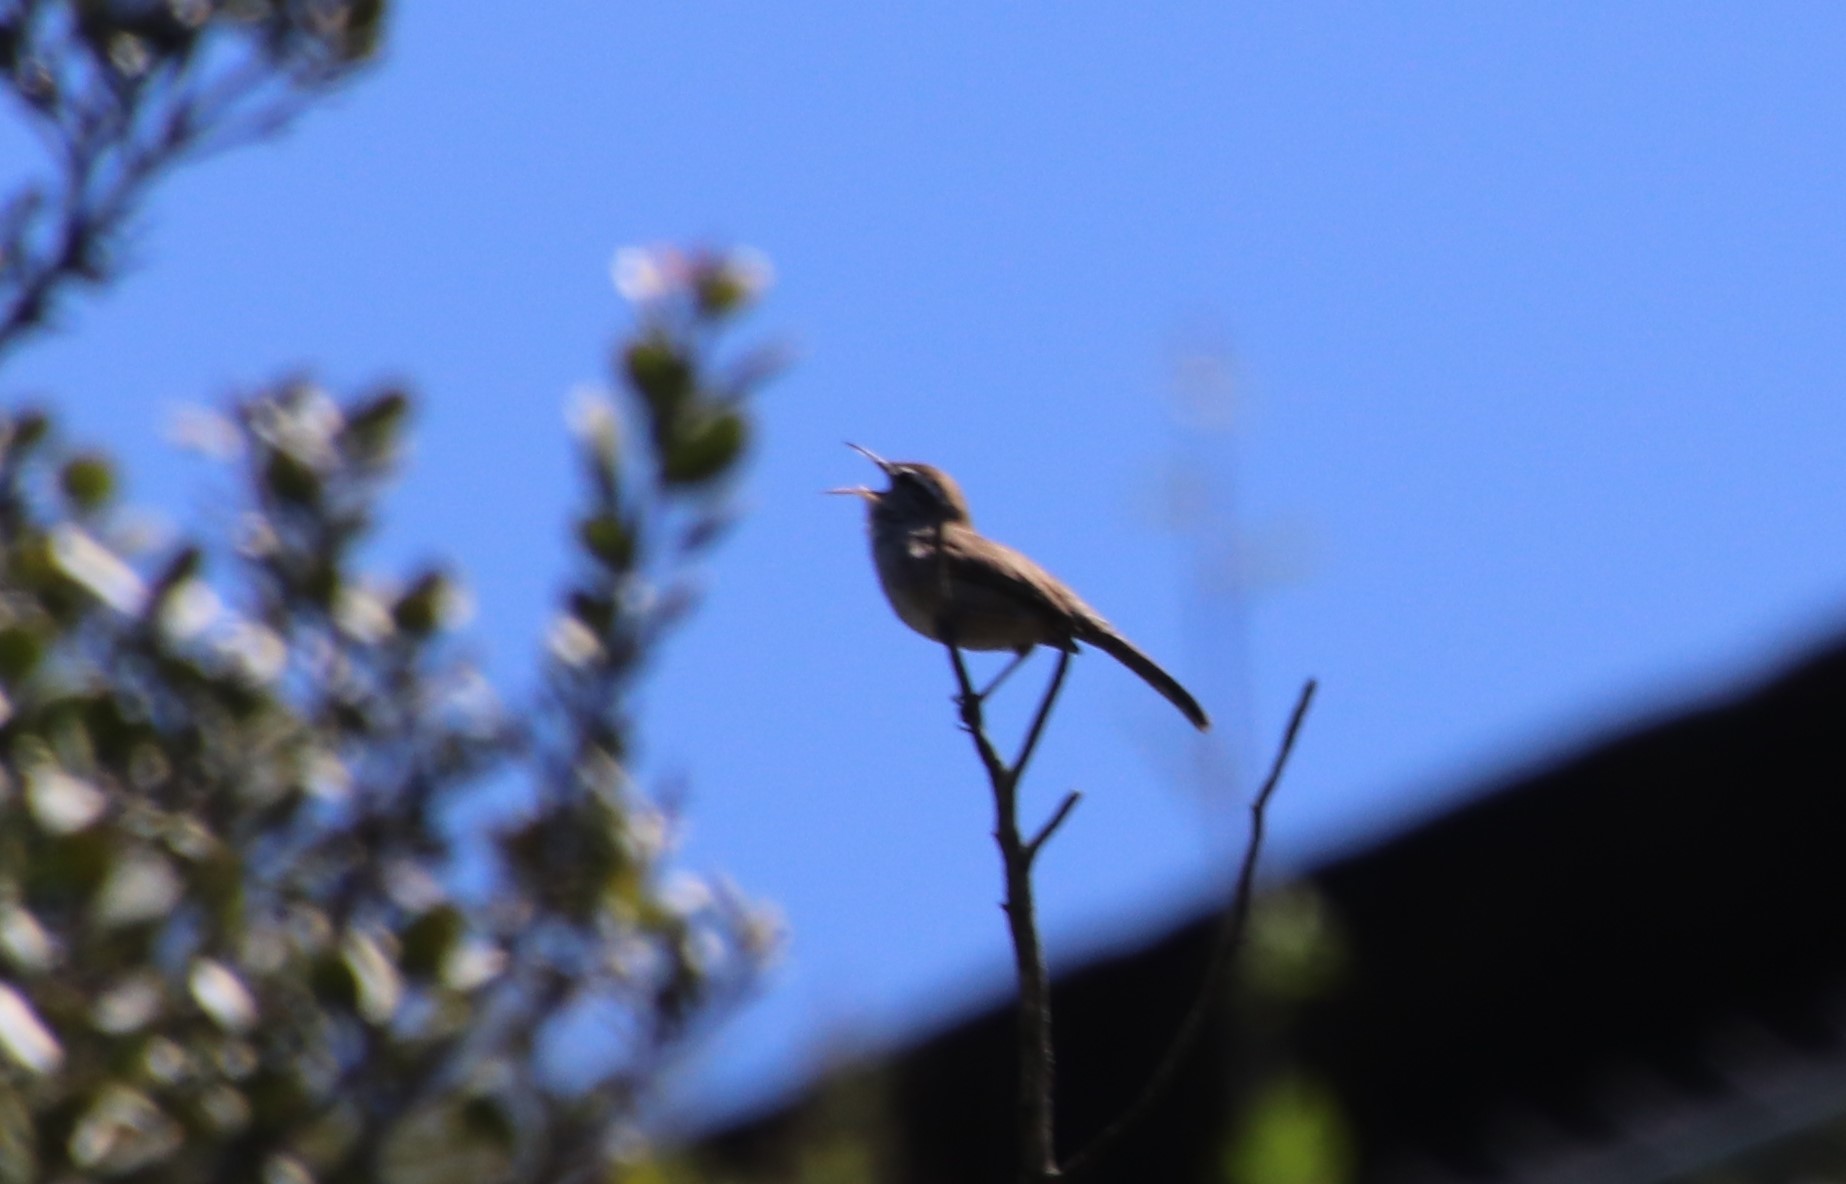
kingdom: Animalia
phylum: Chordata
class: Aves
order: Passeriformes
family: Troglodytidae
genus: Thryomanes
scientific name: Thryomanes bewickii
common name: Bewick's wren
